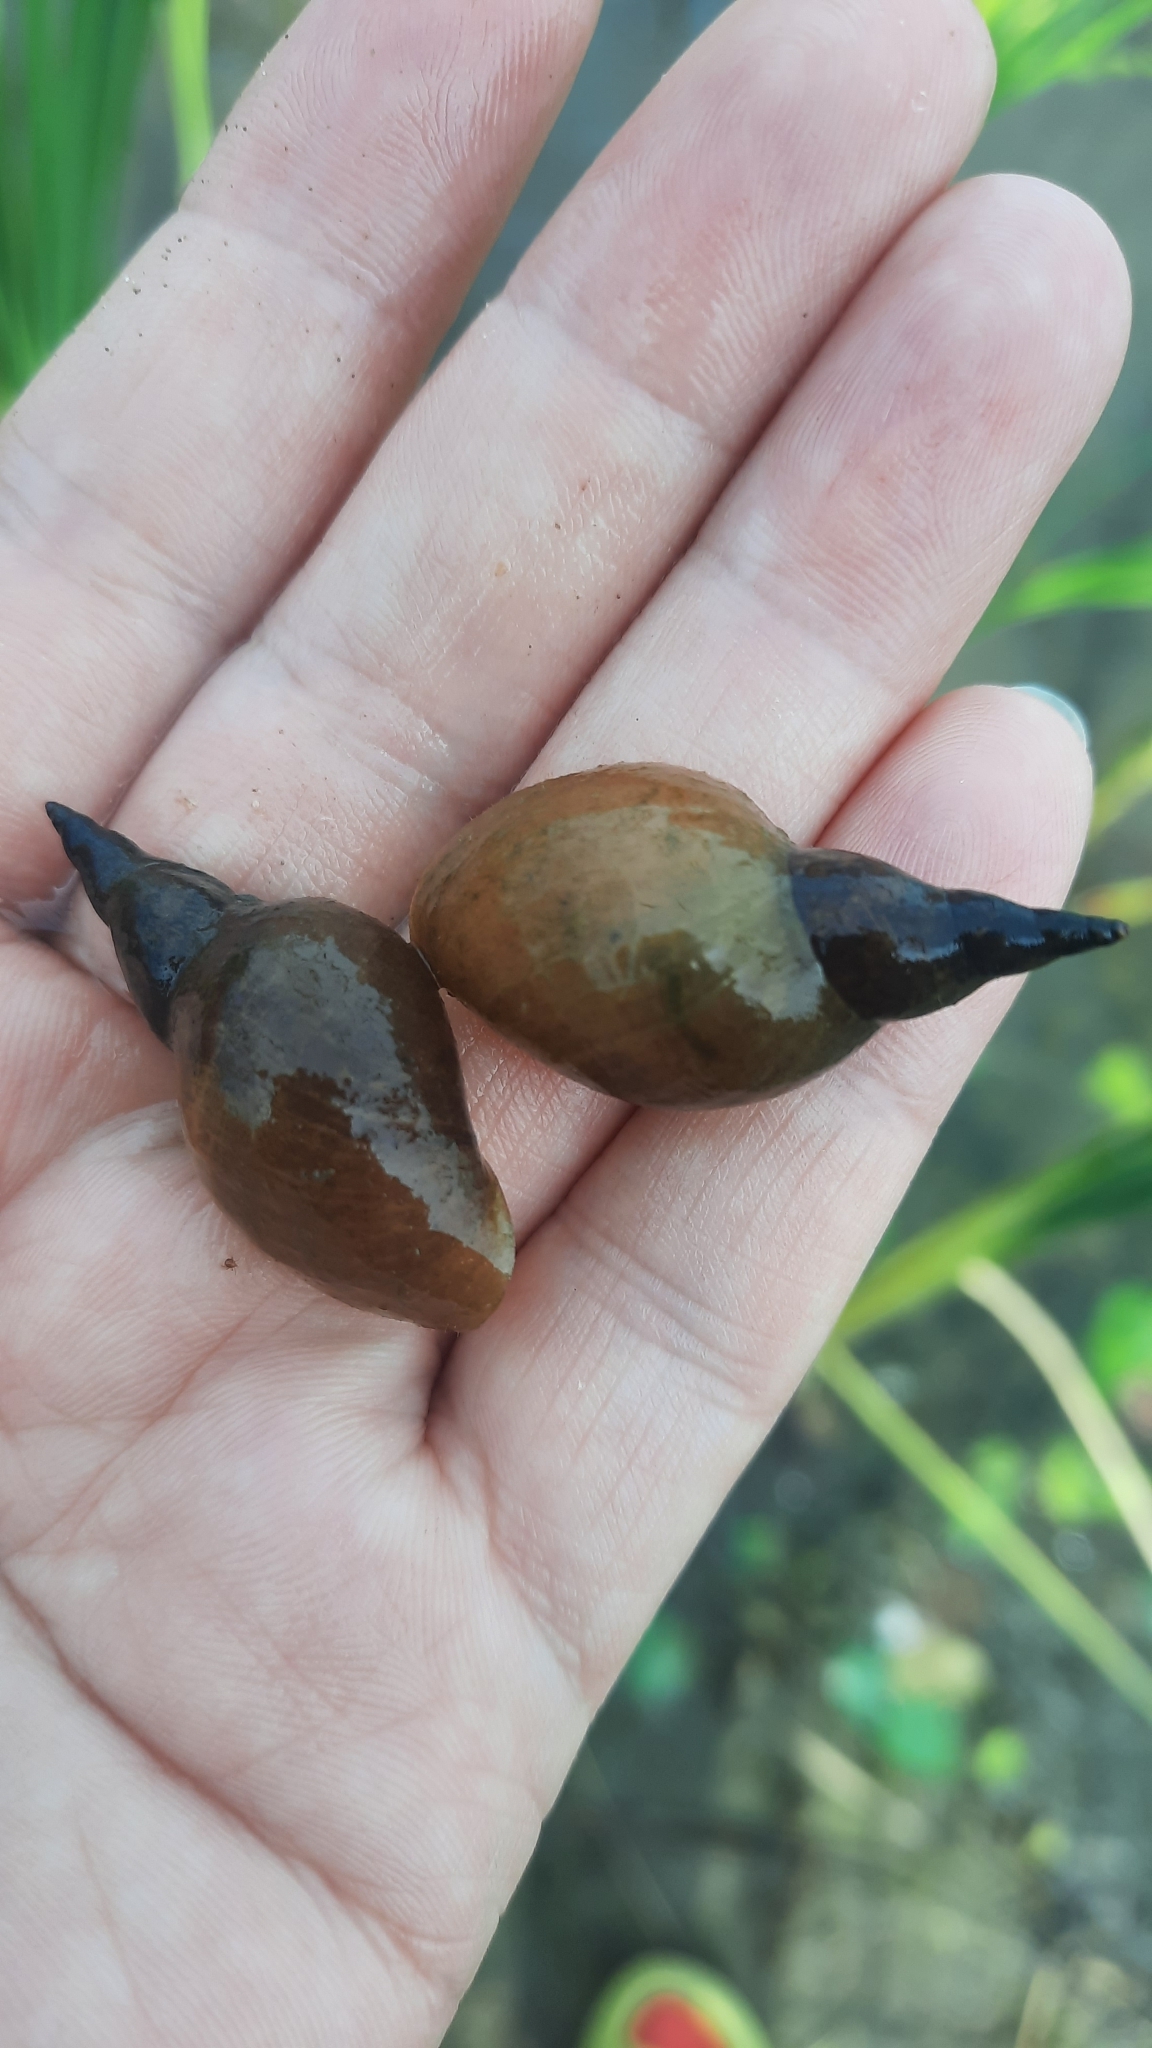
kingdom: Animalia
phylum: Mollusca
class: Gastropoda
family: Lymnaeidae
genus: Lymnaea
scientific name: Lymnaea stagnalis
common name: Great pond snail
